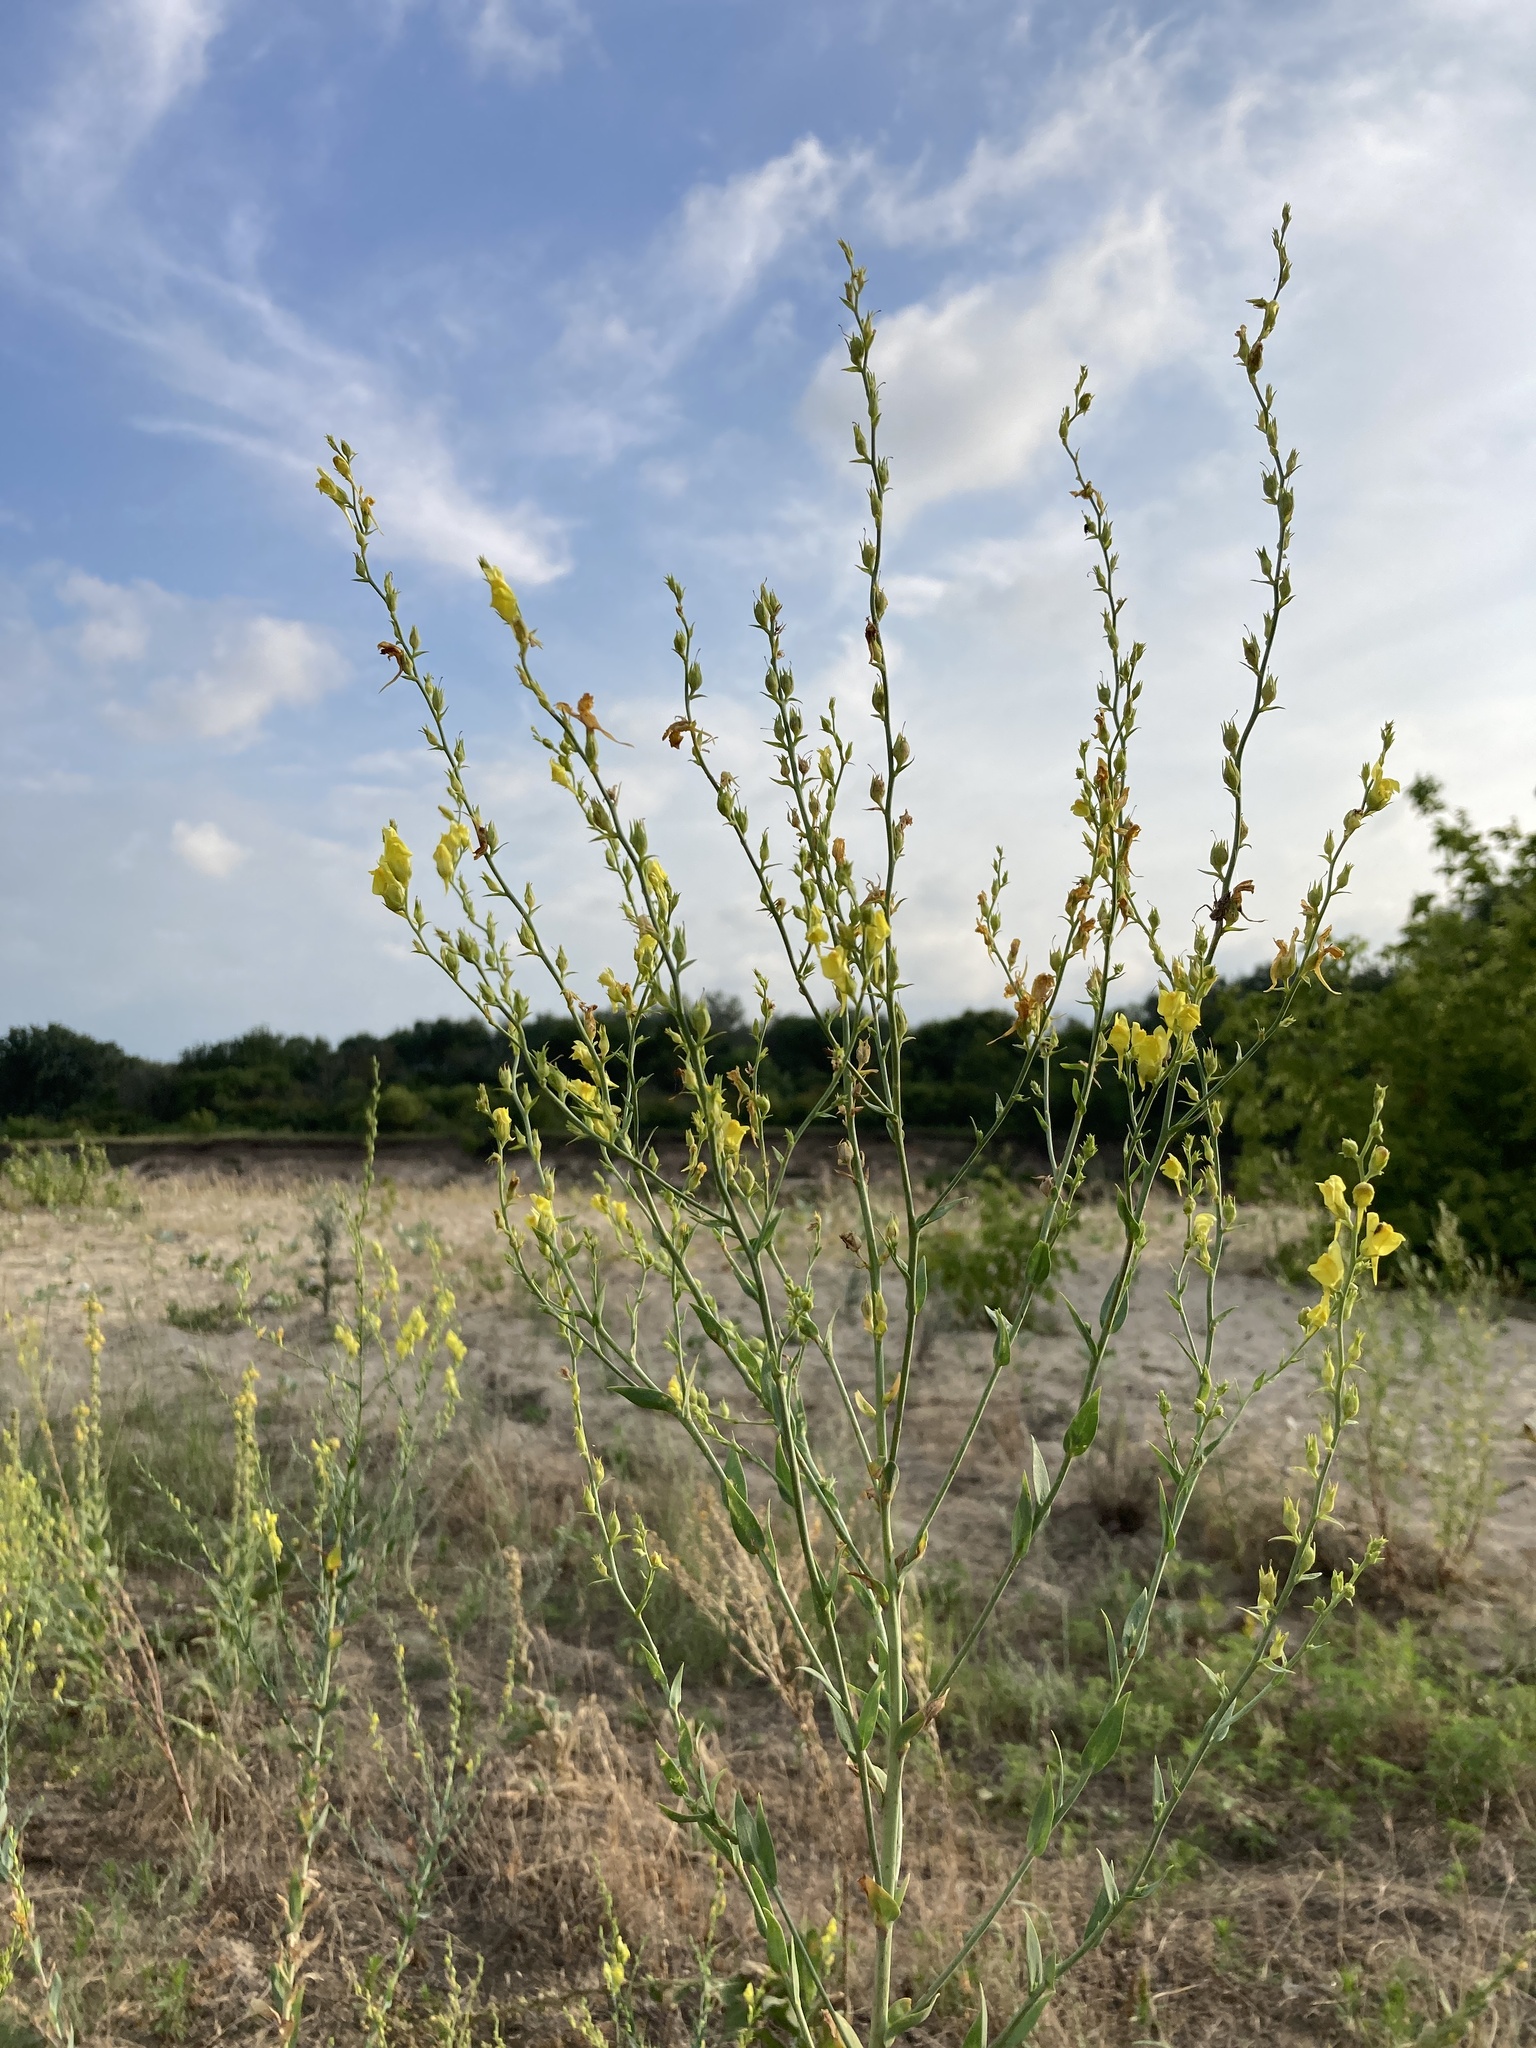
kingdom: Plantae
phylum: Tracheophyta
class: Magnoliopsida
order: Lamiales
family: Plantaginaceae
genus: Linaria
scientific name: Linaria genistifolia
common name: Broomleaf toadflax
